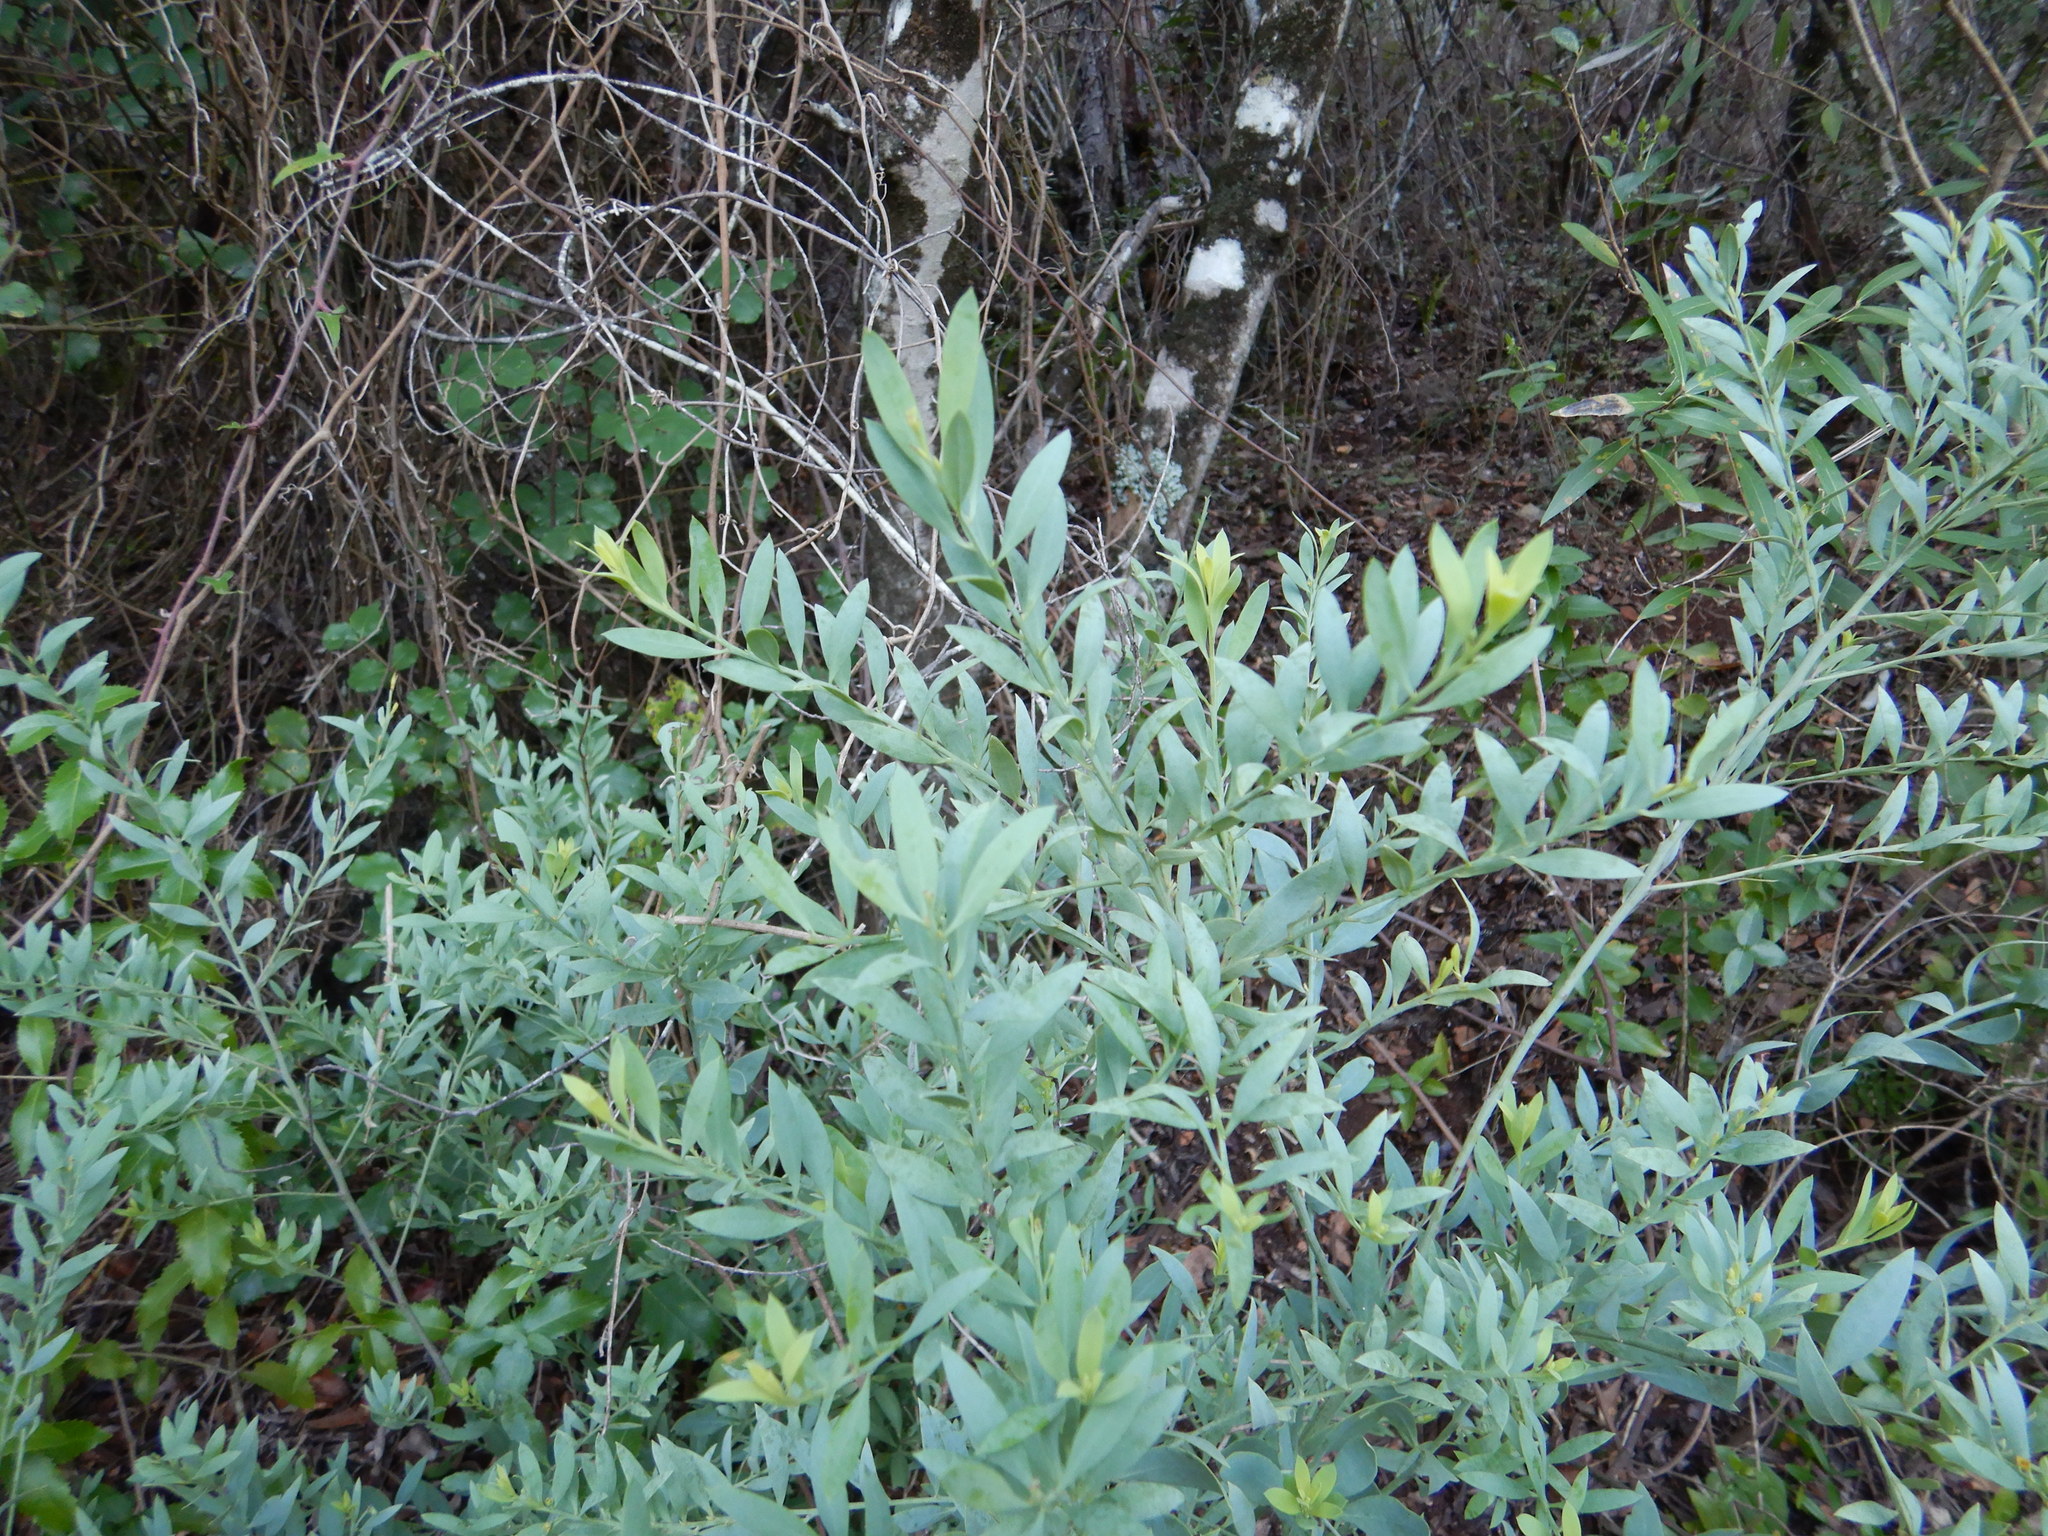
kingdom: Plantae
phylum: Tracheophyta
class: Magnoliopsida
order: Santalales
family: Santalaceae
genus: Osyris
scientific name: Osyris lanceolata
